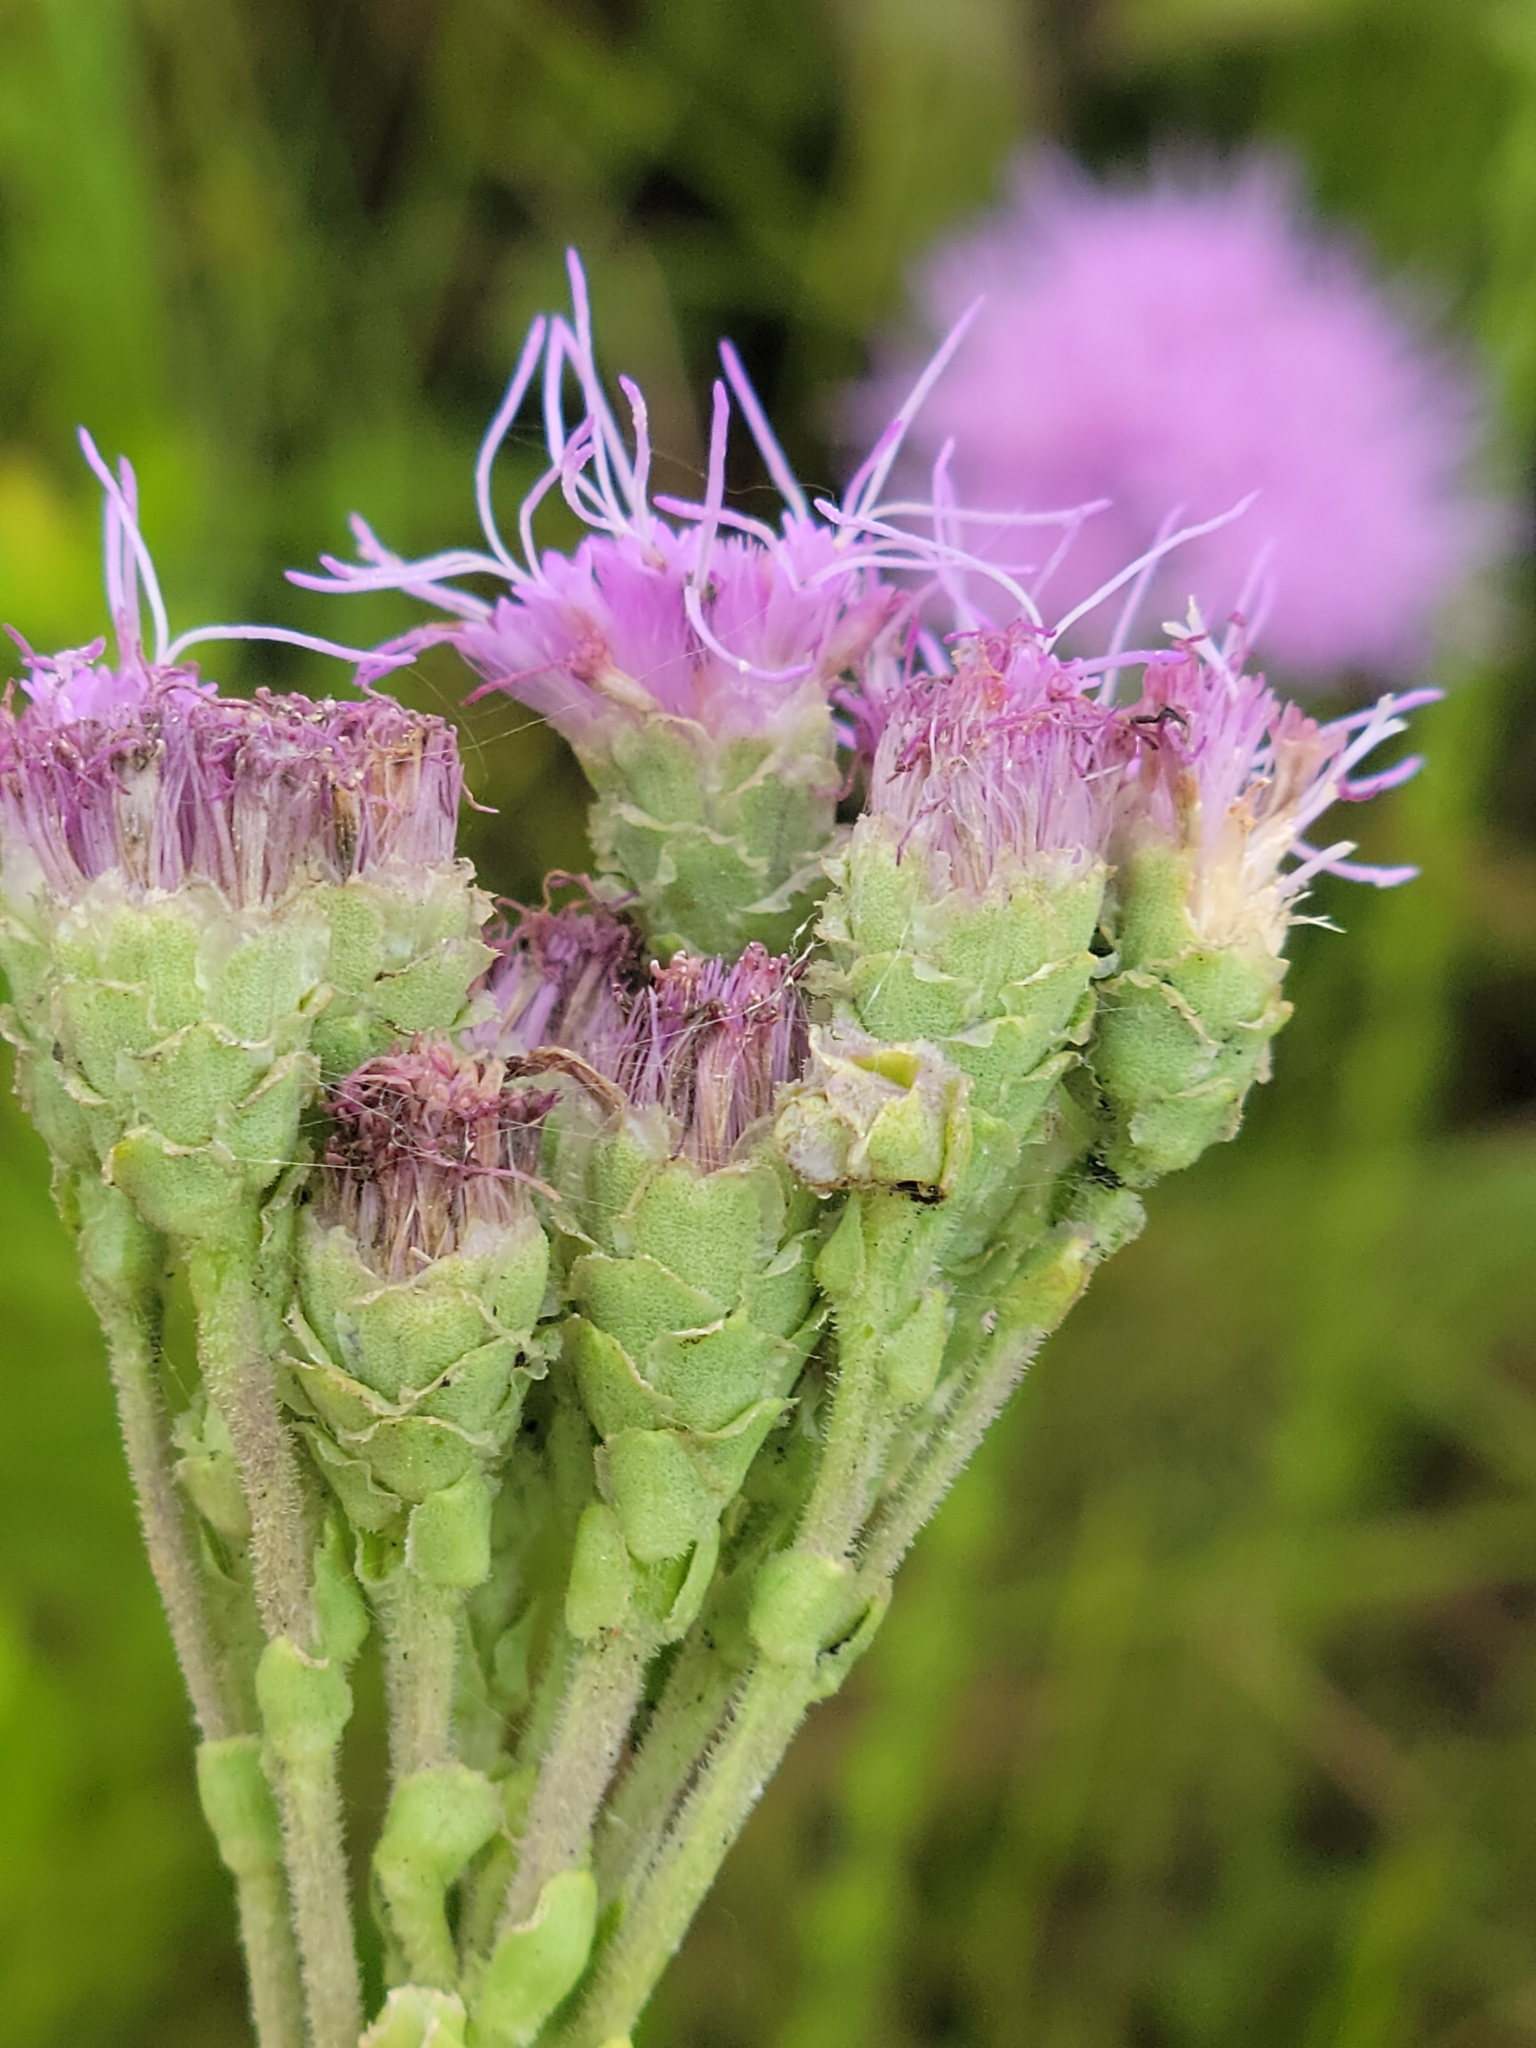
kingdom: Plantae
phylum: Tracheophyta
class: Magnoliopsida
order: Asterales
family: Asteraceae
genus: Carphephorus
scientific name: Carphephorus corymbosus
